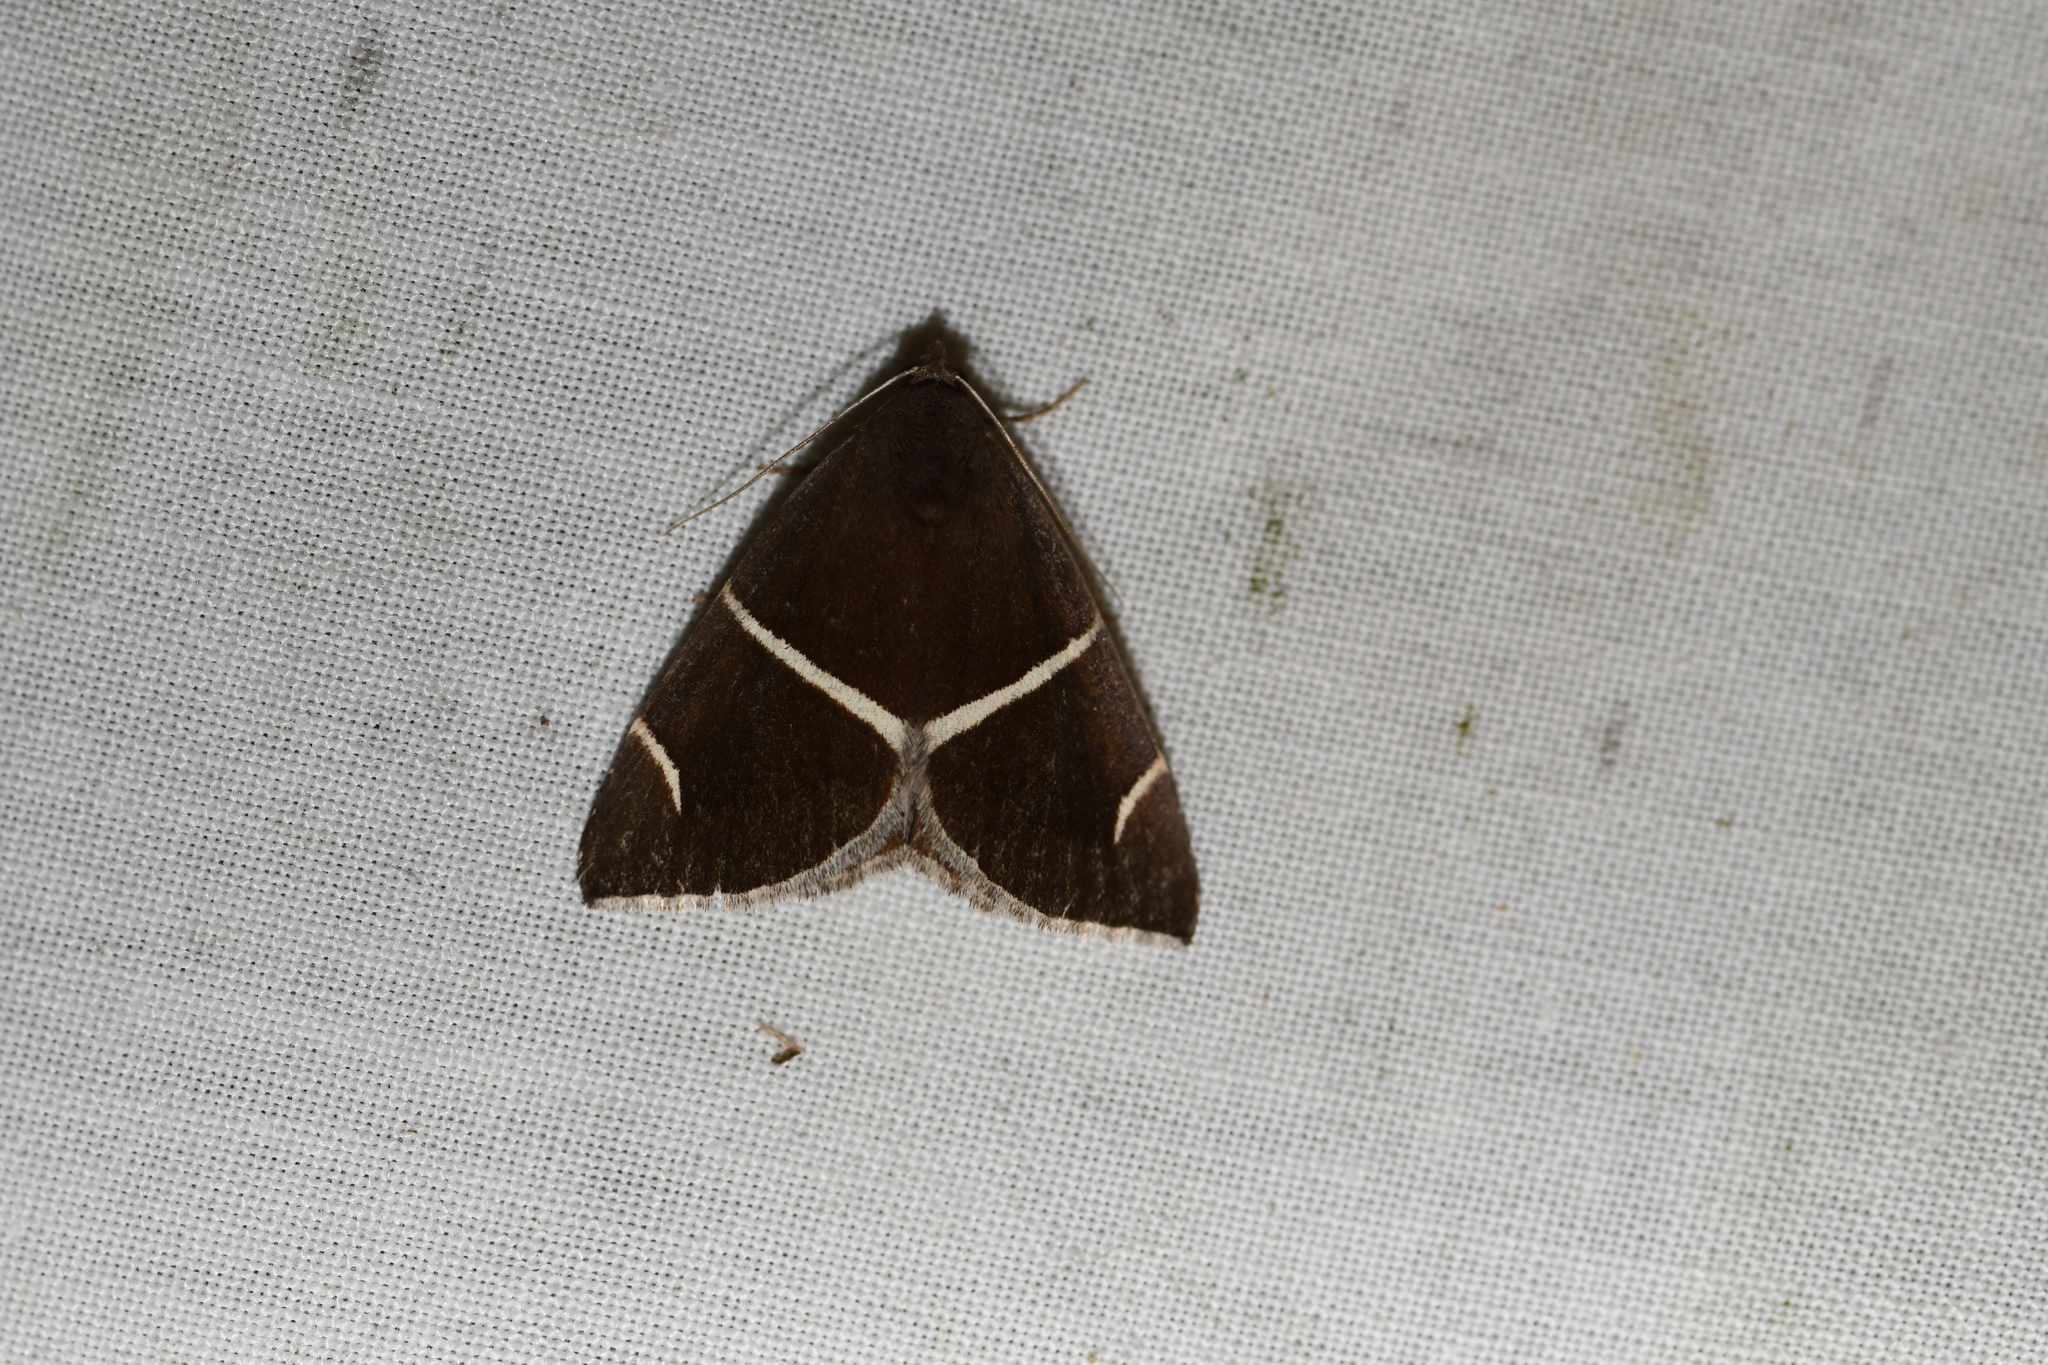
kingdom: Animalia
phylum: Arthropoda
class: Insecta
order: Lepidoptera
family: Erebidae
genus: Argyrostrotis
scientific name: Argyrostrotis anilis
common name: Short-lined chocolate
